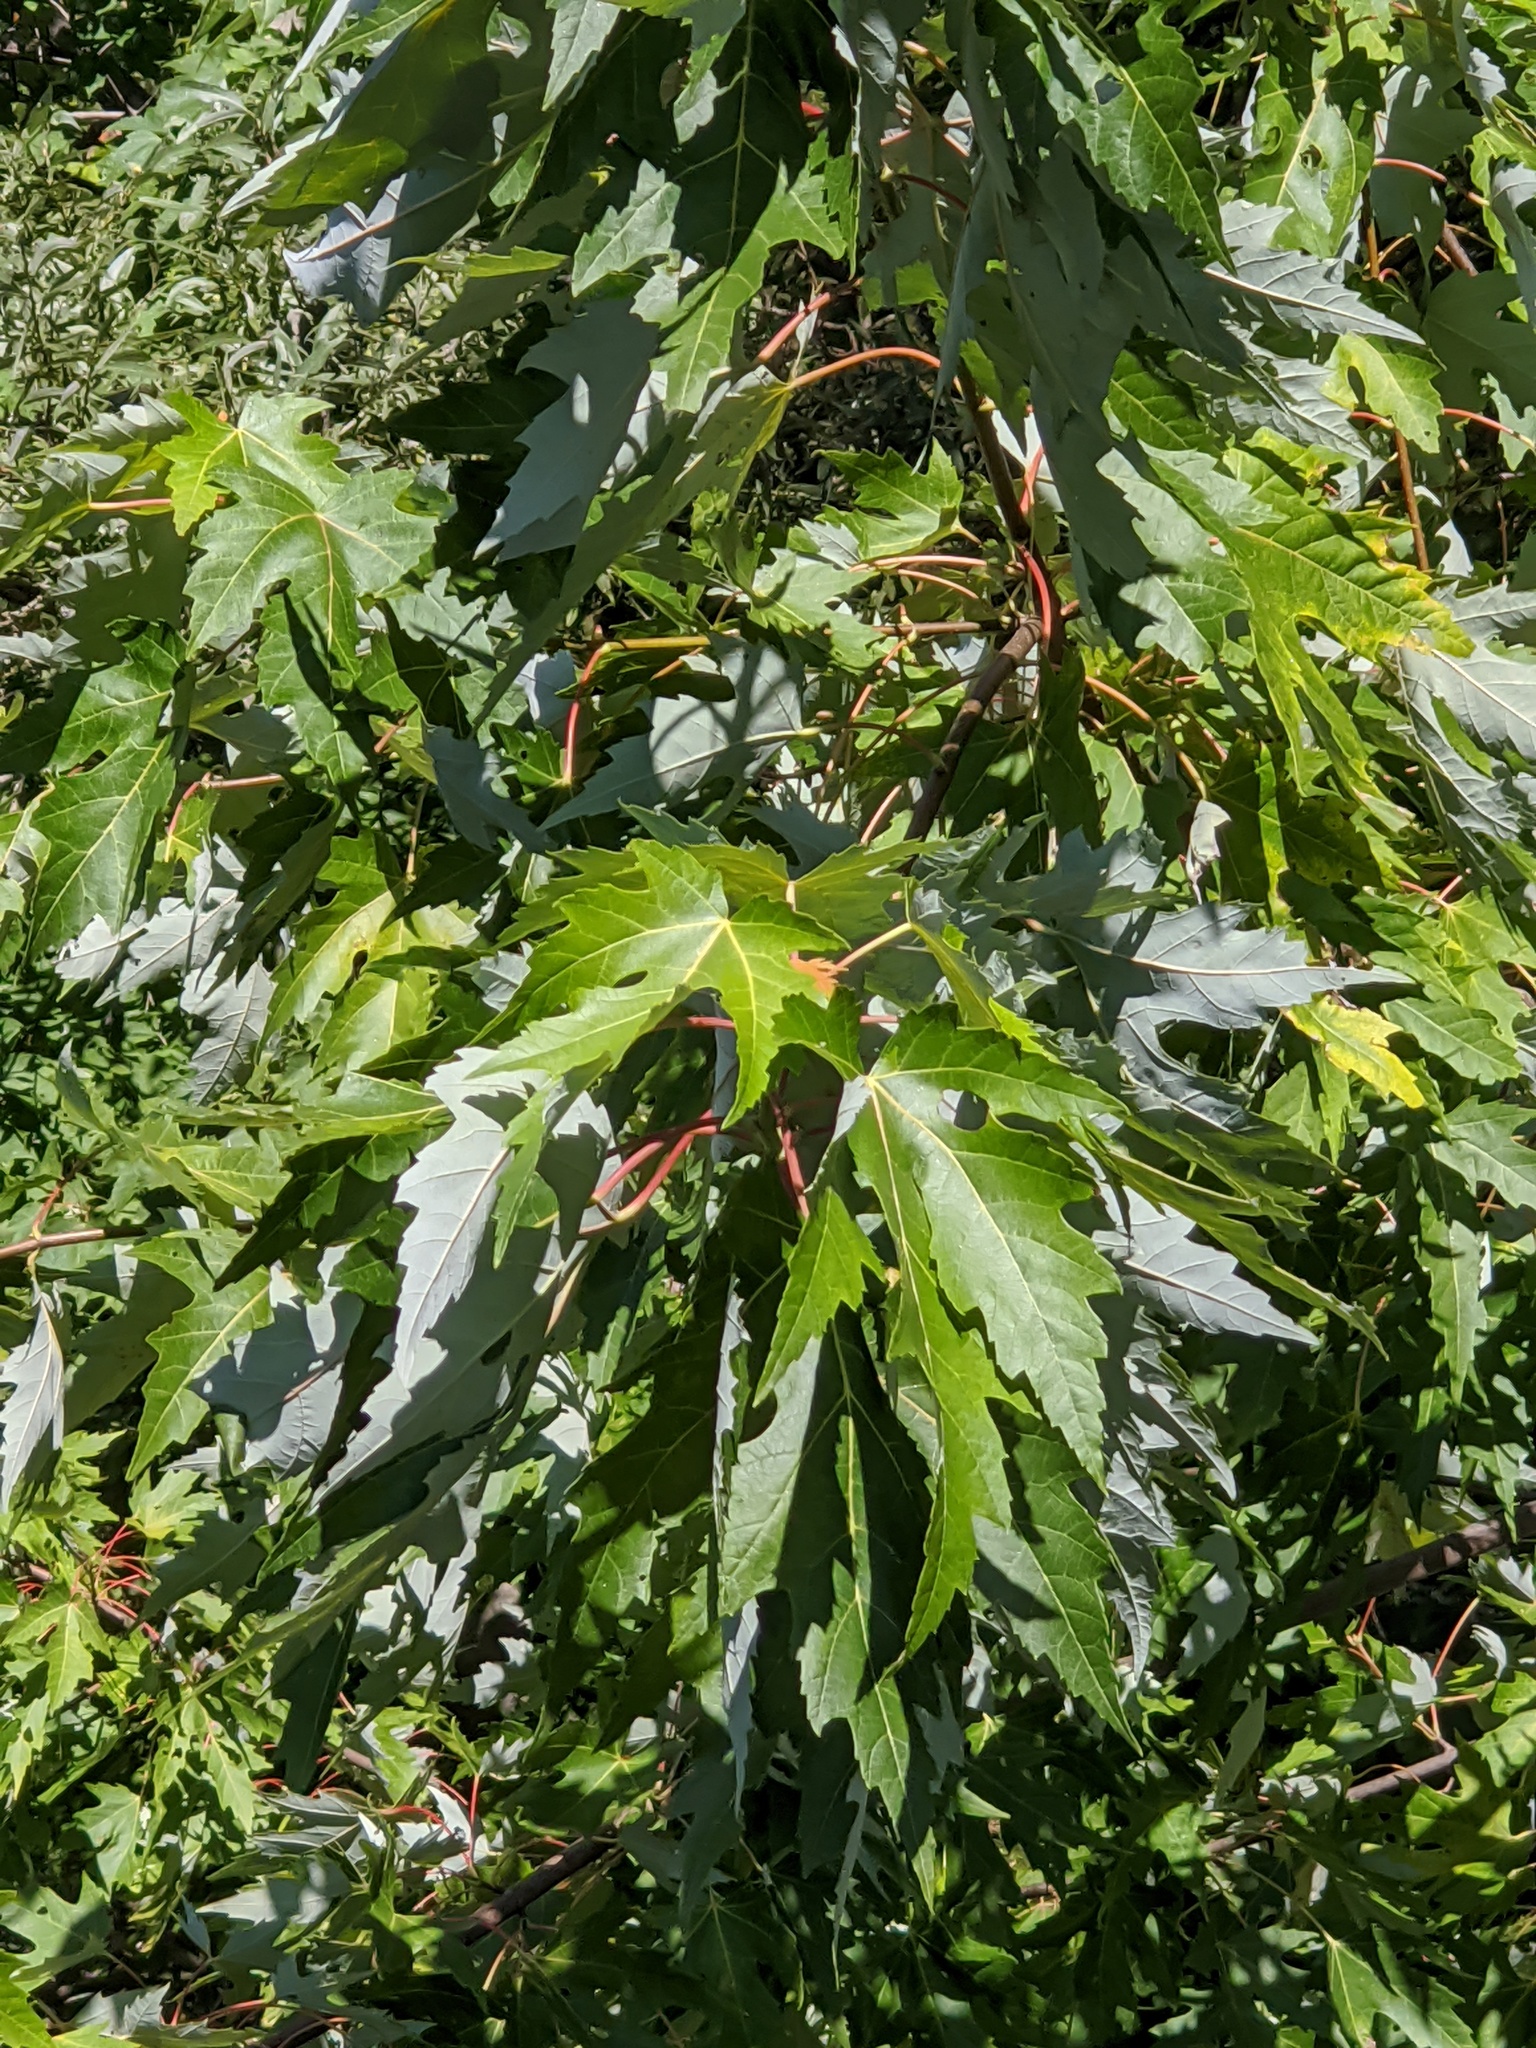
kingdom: Plantae
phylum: Tracheophyta
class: Magnoliopsida
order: Sapindales
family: Sapindaceae
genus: Acer
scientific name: Acer saccharinum
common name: Silver maple
